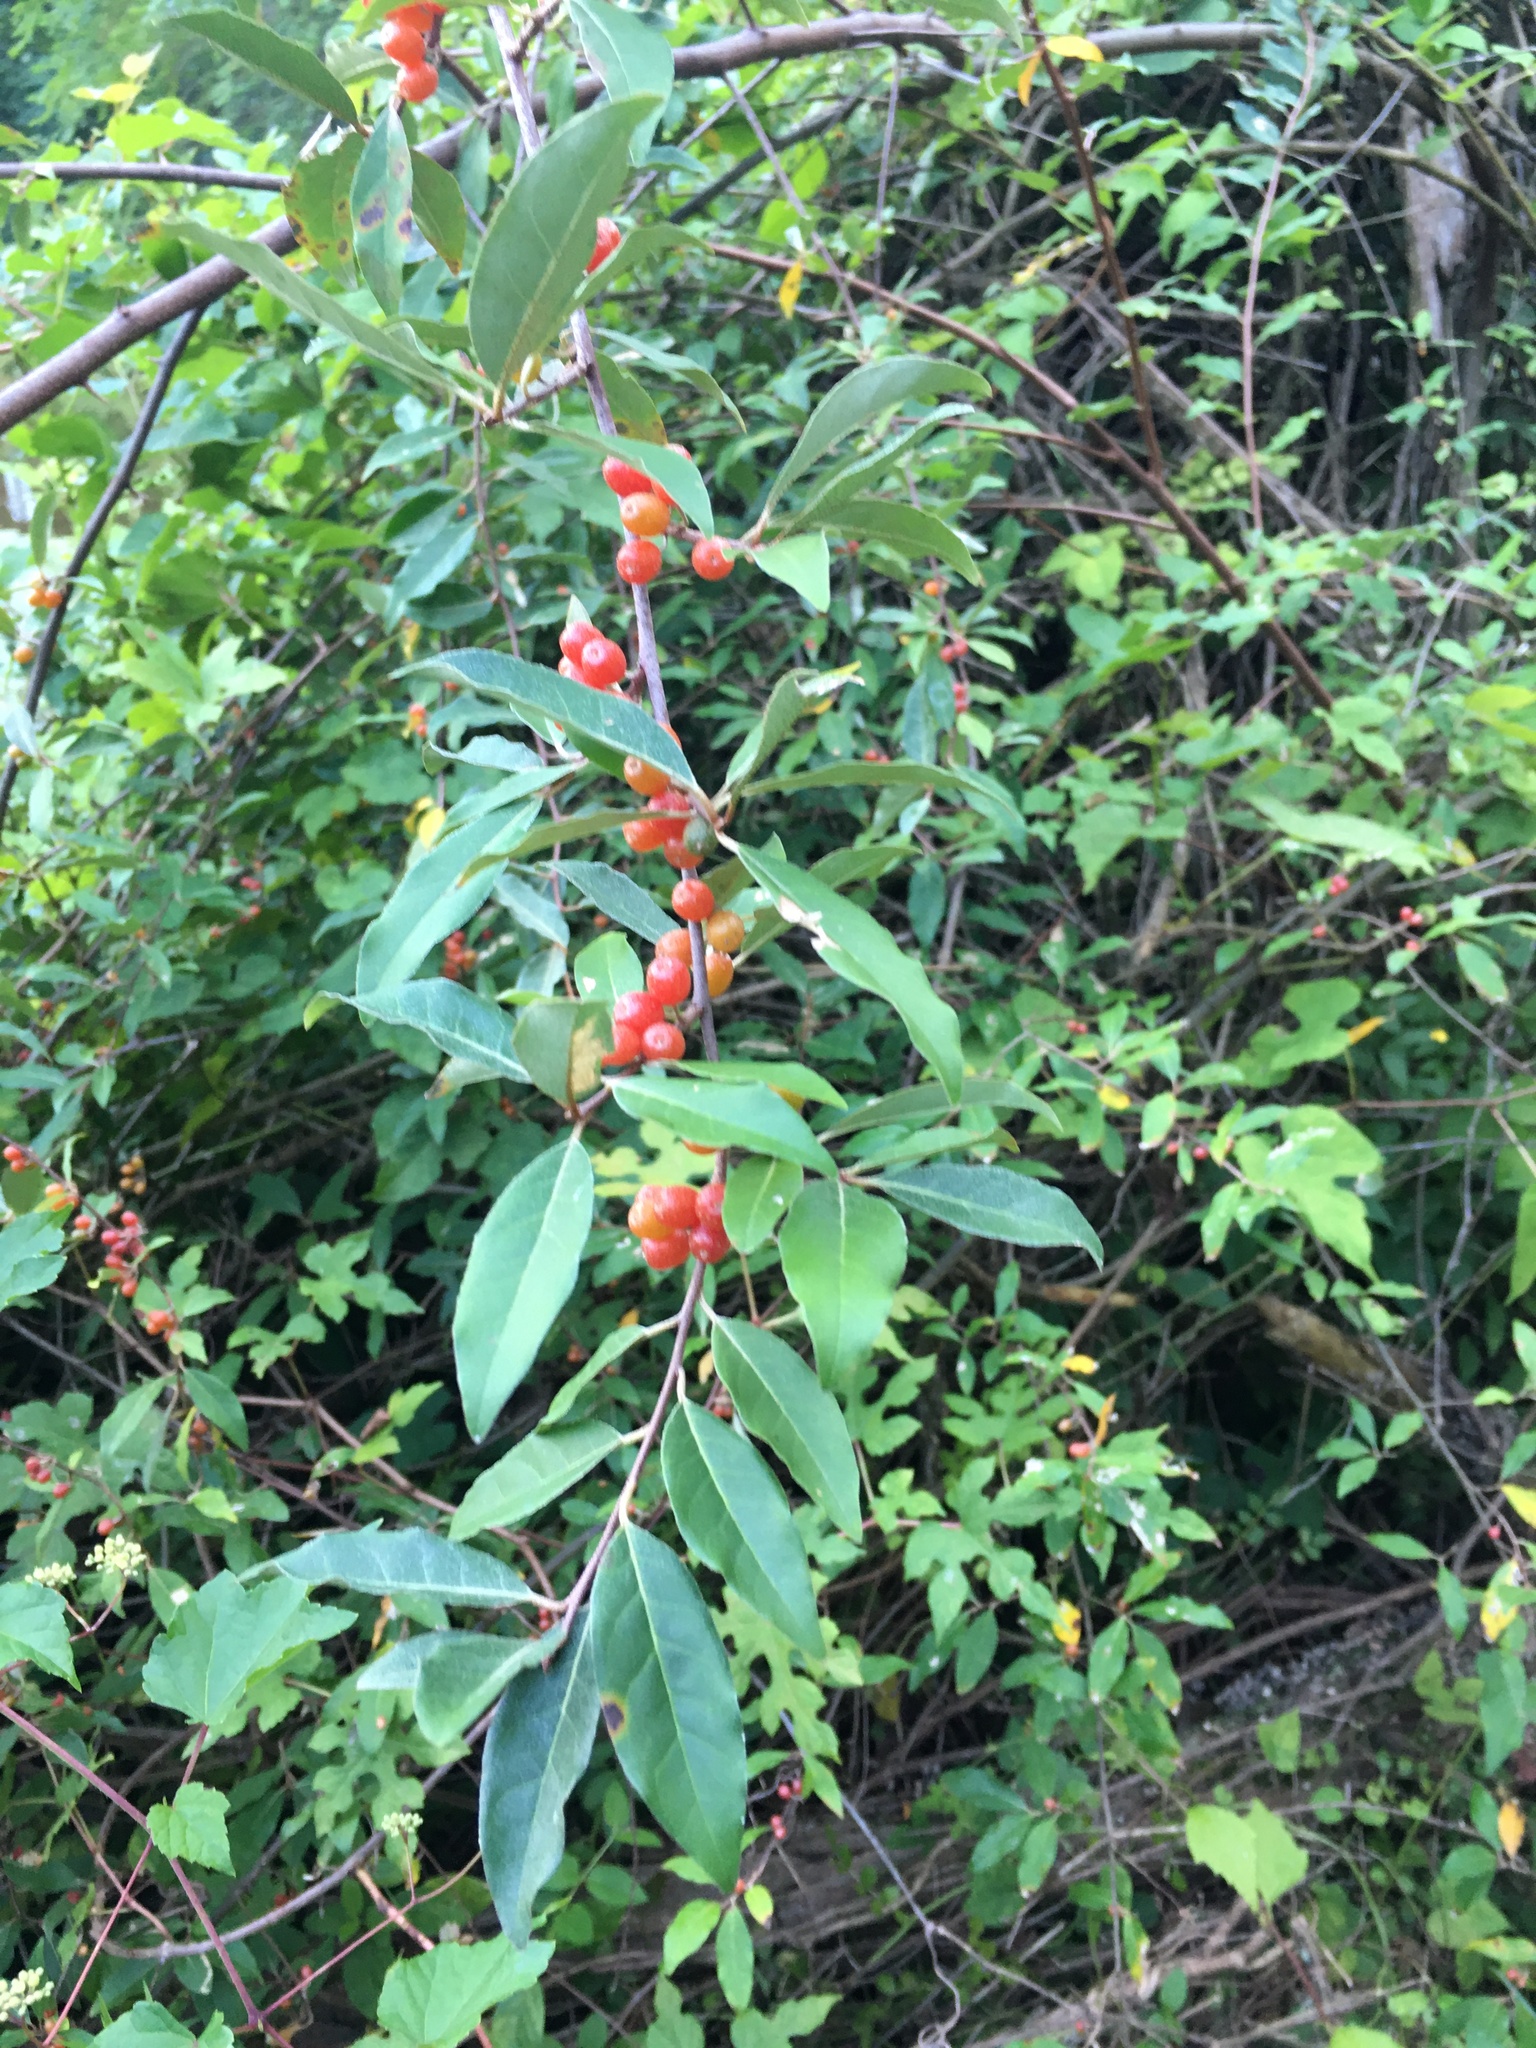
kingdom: Plantae
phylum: Tracheophyta
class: Magnoliopsida
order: Rosales
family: Elaeagnaceae
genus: Elaeagnus
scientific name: Elaeagnus umbellata
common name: Autumn olive
